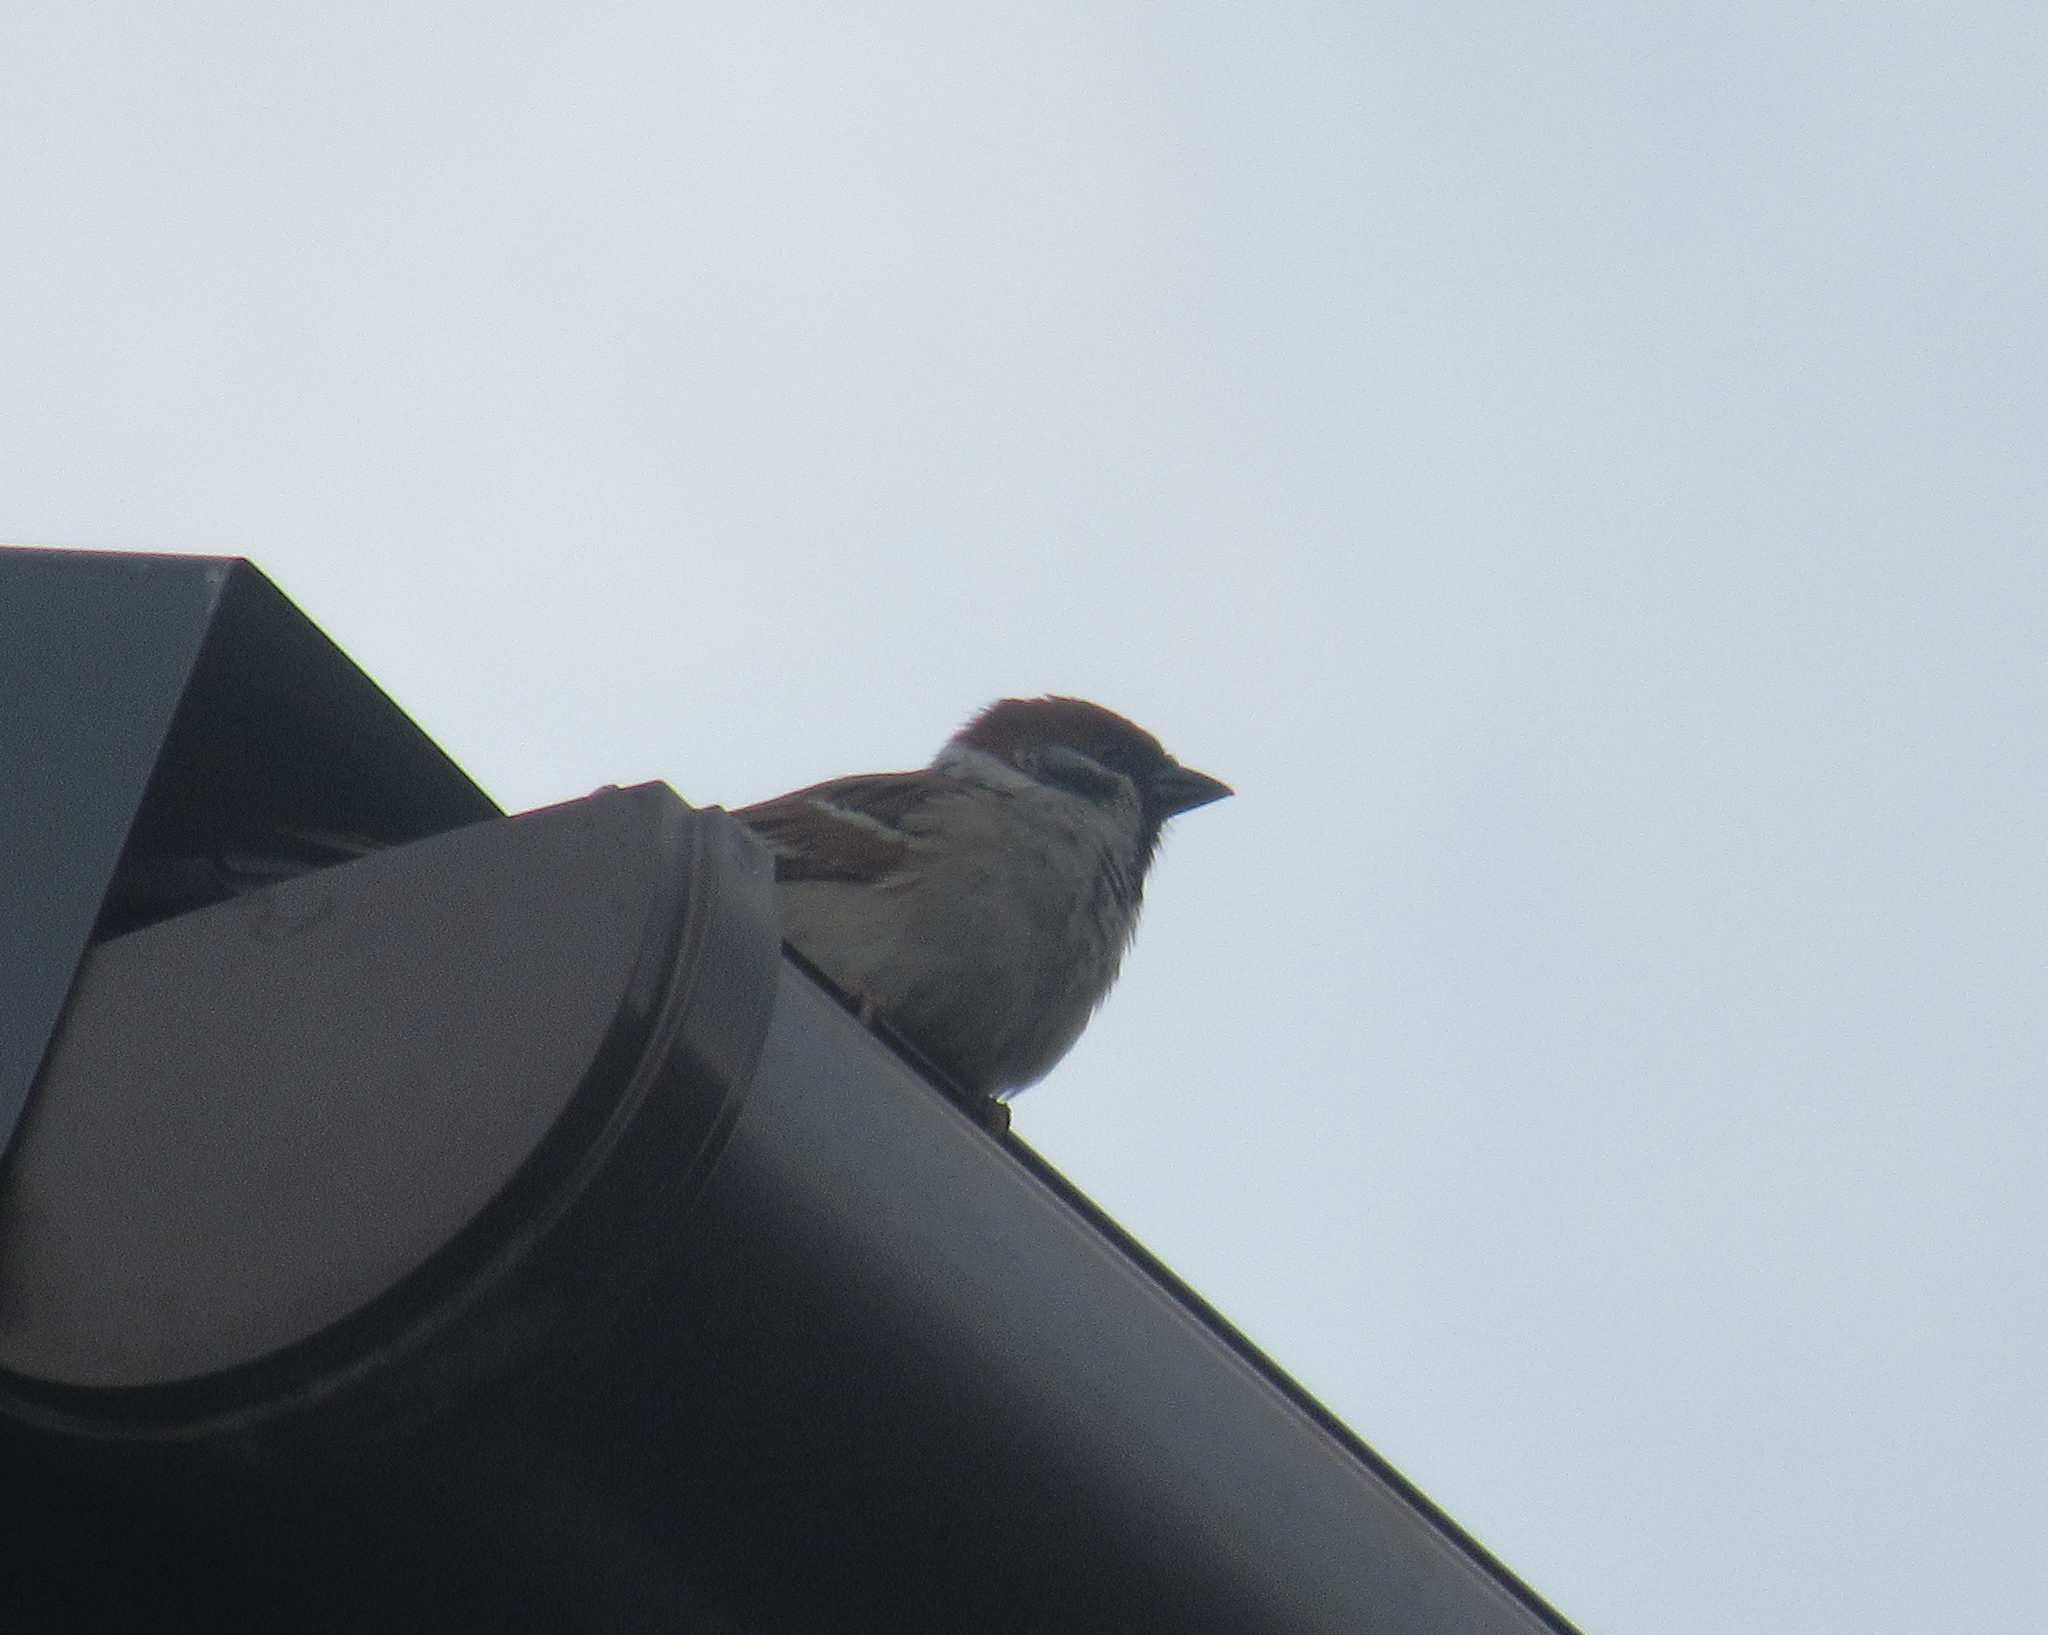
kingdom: Animalia
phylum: Chordata
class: Aves
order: Passeriformes
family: Passeridae
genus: Passer
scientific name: Passer montanus
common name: Eurasian tree sparrow
